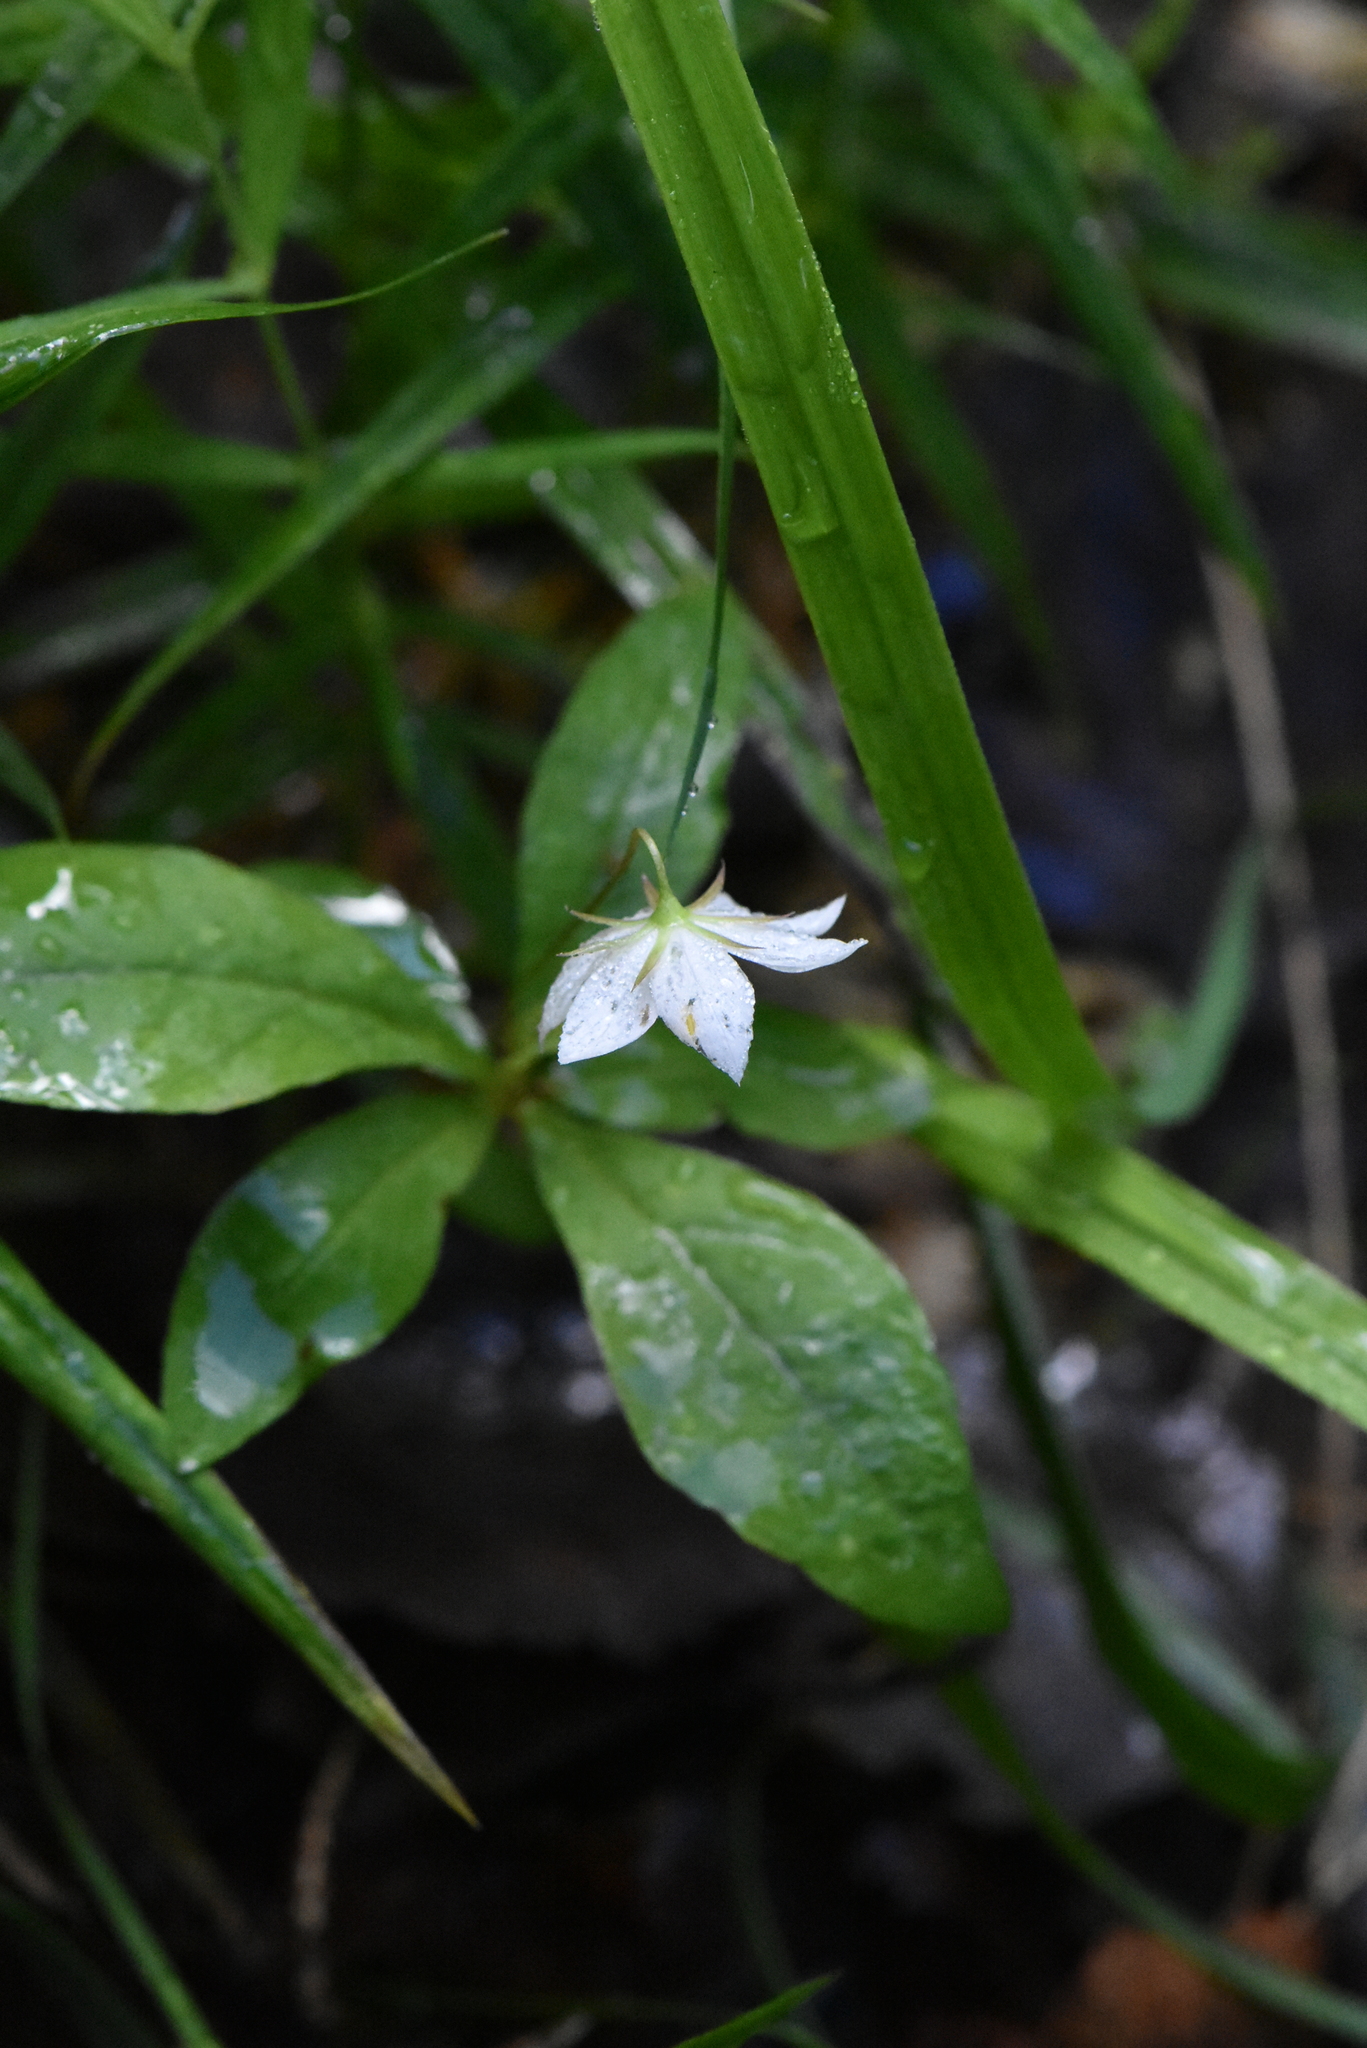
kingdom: Plantae
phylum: Tracheophyta
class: Magnoliopsida
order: Ericales
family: Primulaceae
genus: Lysimachia
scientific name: Lysimachia europaea
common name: Arctic starflower
